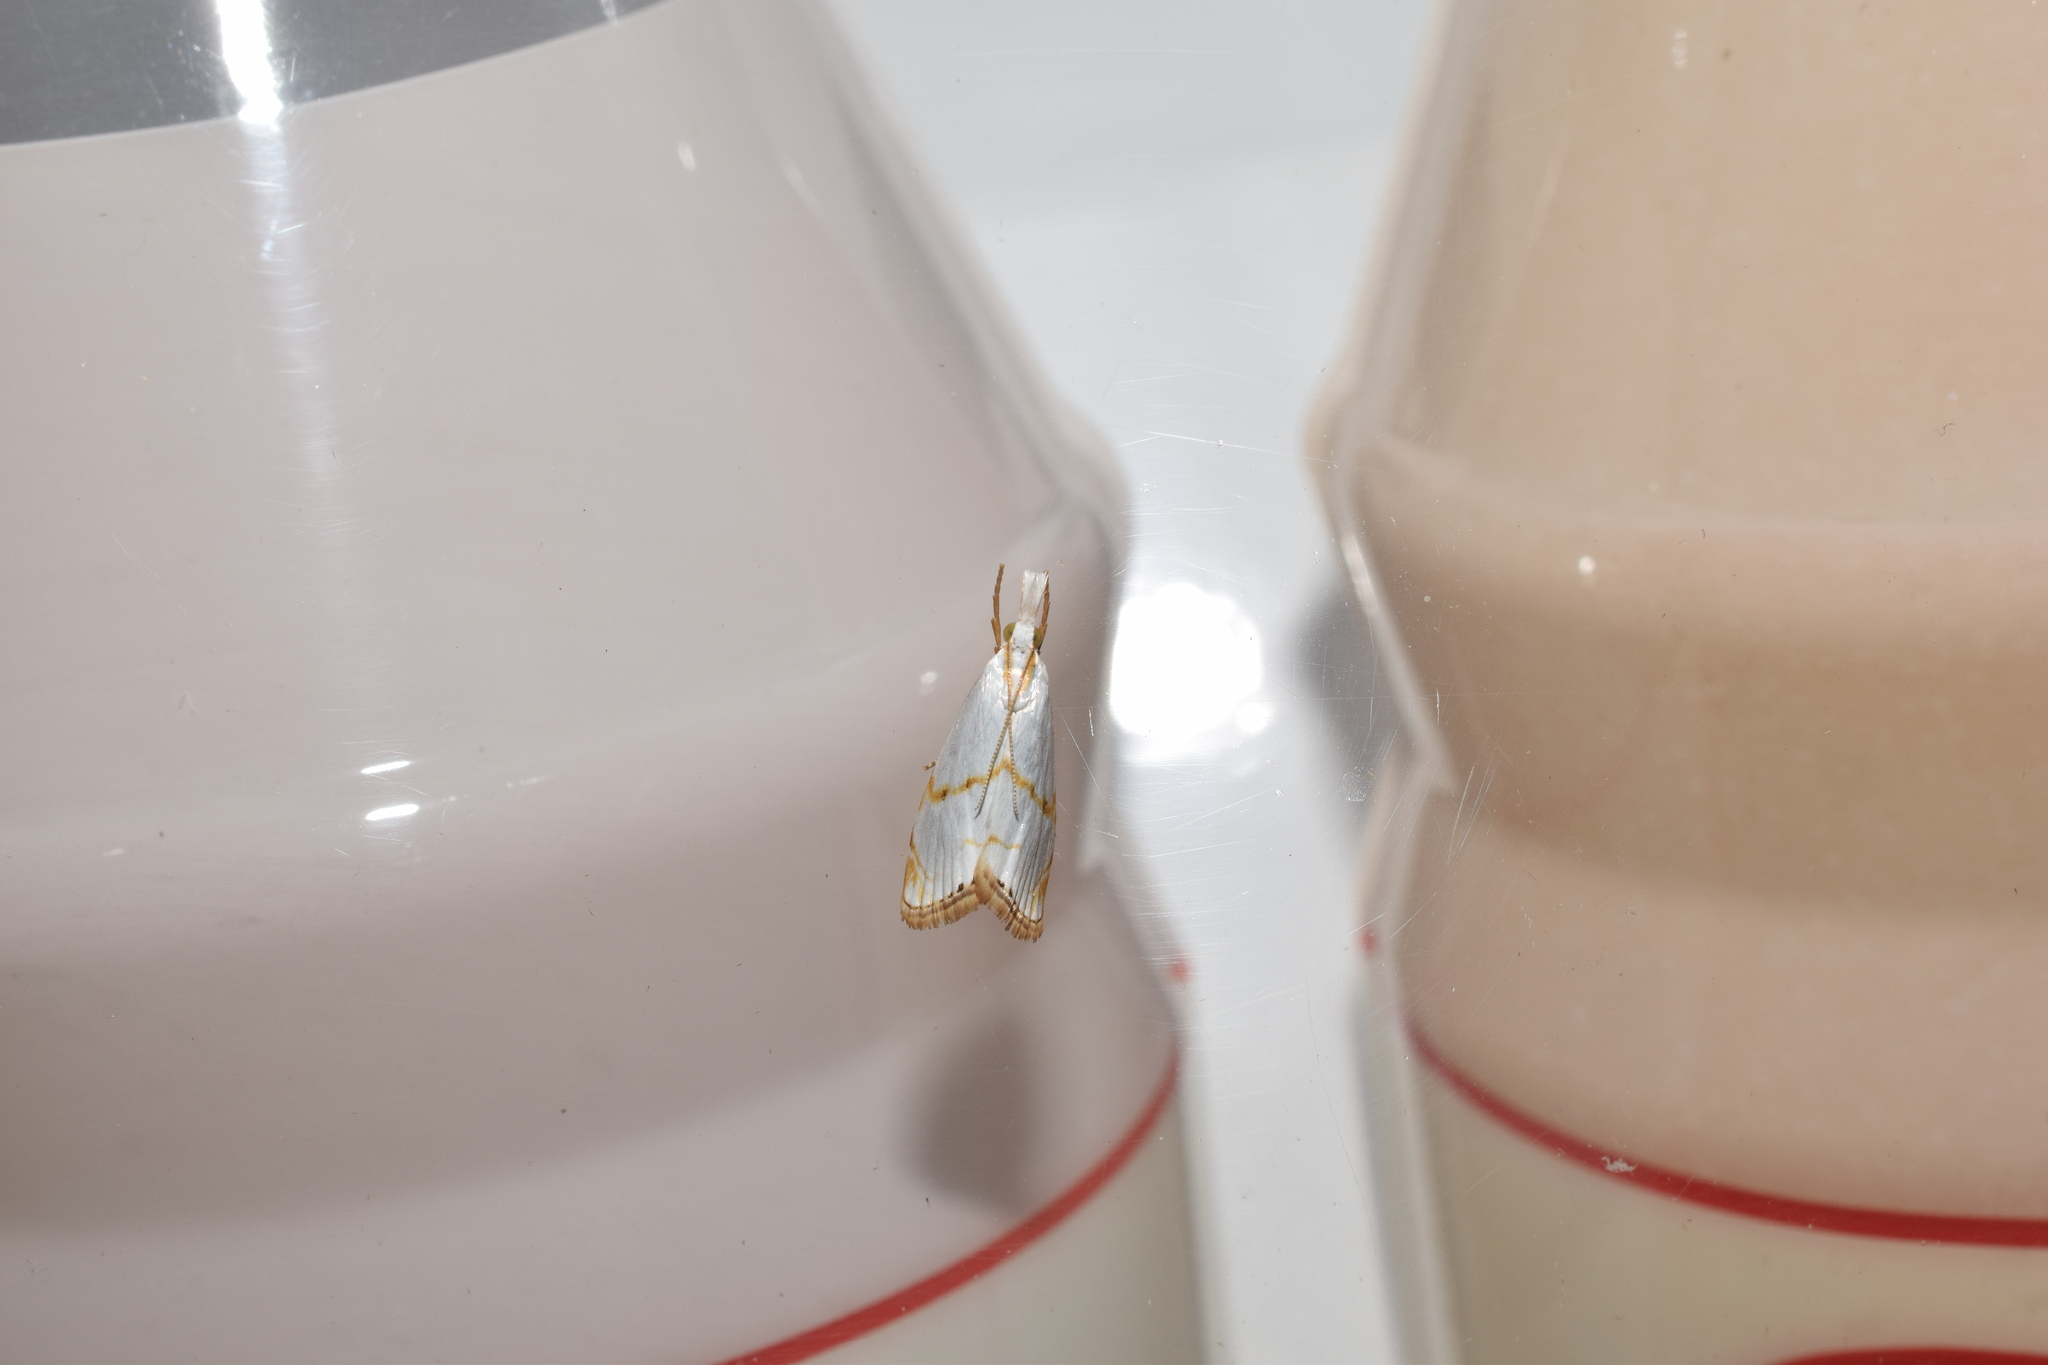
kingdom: Animalia
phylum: Arthropoda
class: Insecta
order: Lepidoptera
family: Crambidae
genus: Pseudargyria
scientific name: Pseudargyria interruptella
